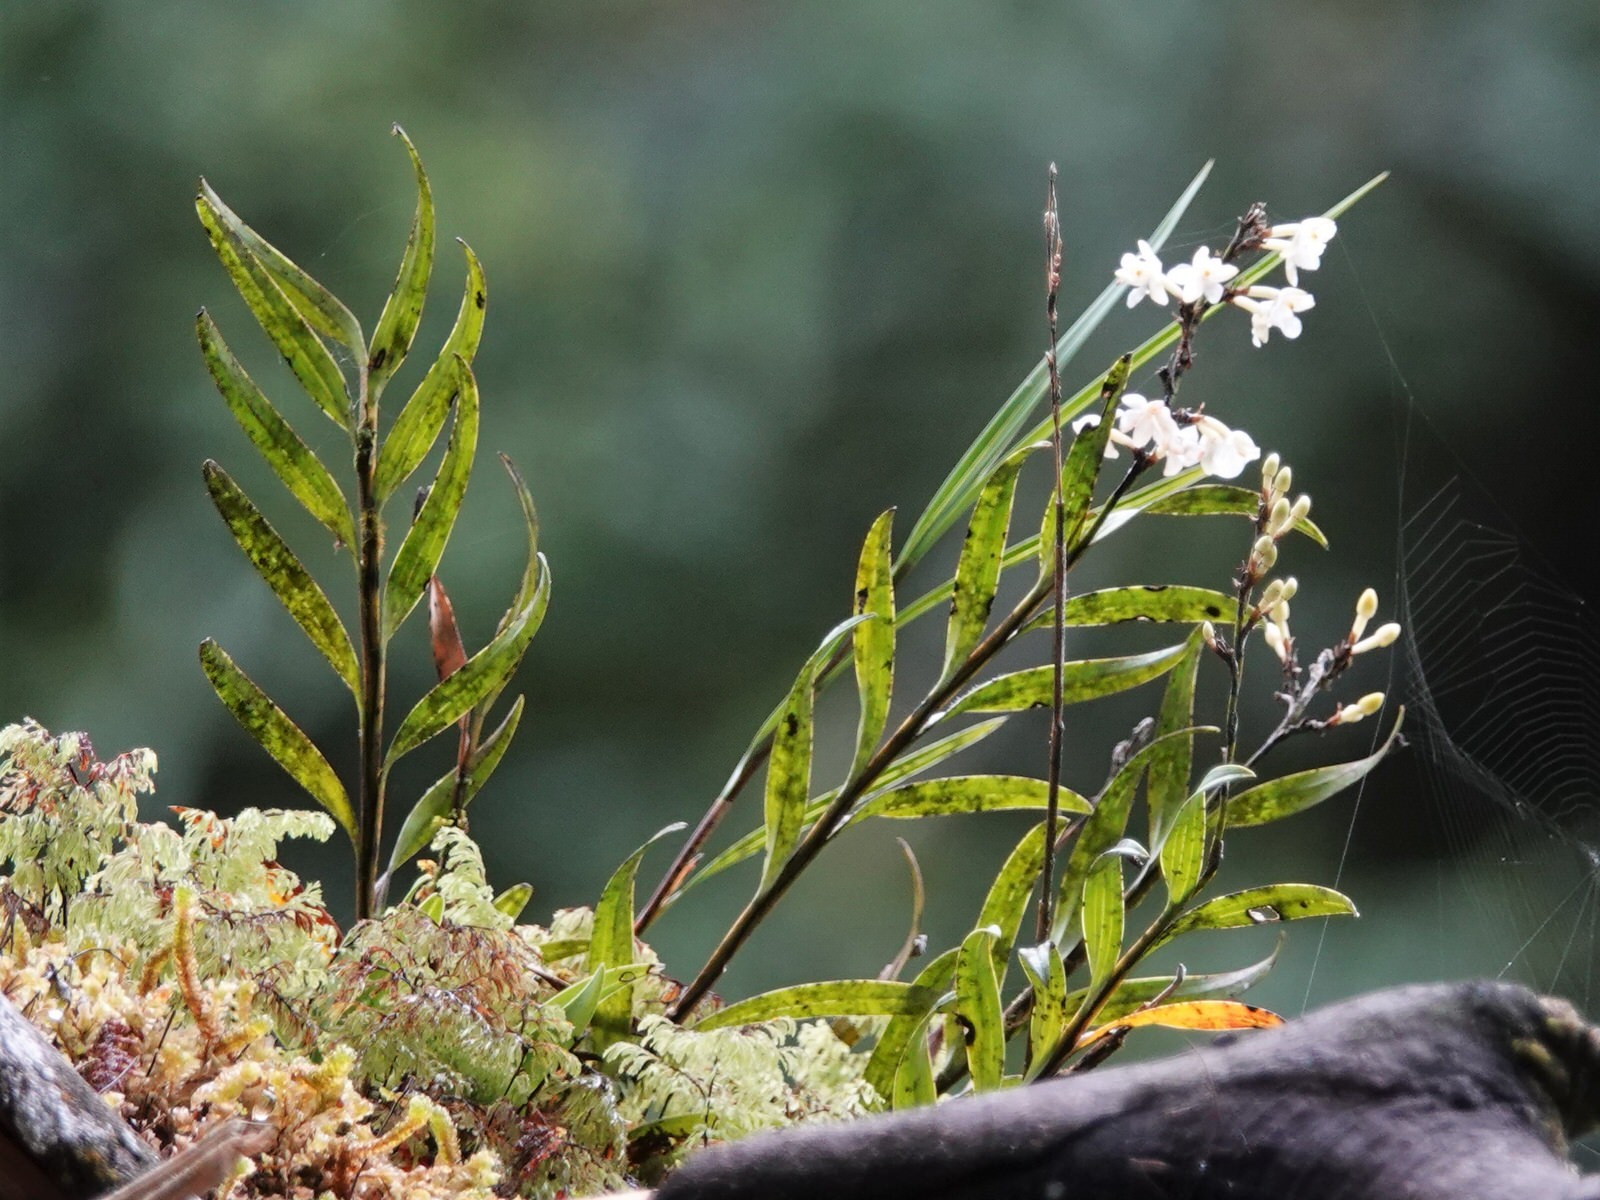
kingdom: Plantae
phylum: Tracheophyta
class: Liliopsida
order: Asparagales
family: Orchidaceae
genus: Earina
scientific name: Earina autumnalis
